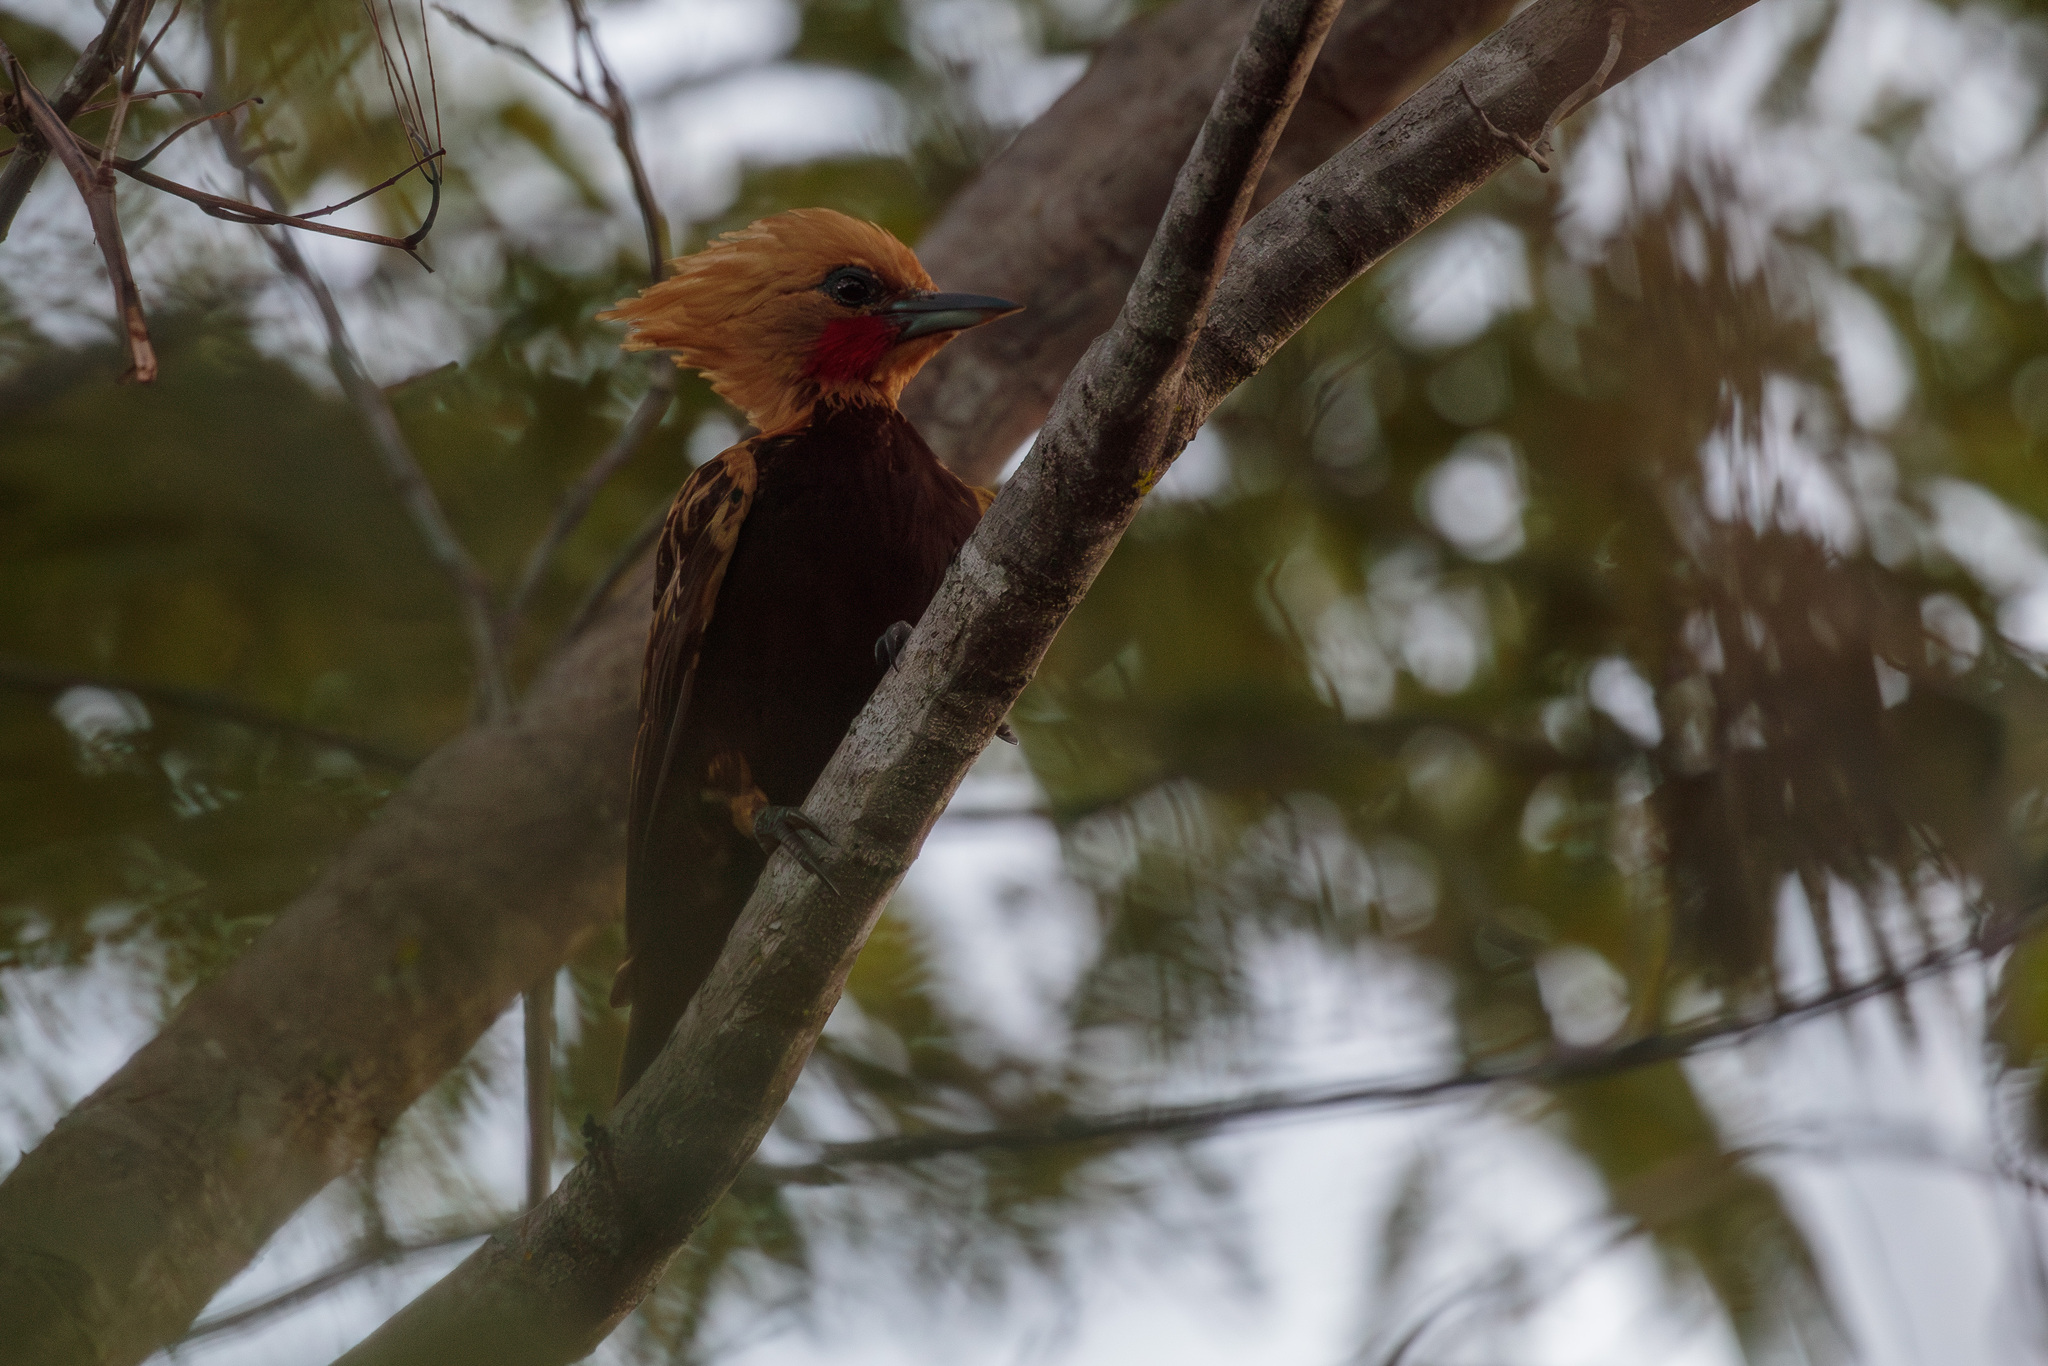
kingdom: Animalia
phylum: Chordata
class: Aves
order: Piciformes
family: Picidae
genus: Celeus
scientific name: Celeus ochraceus
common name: Ochre-backed woodpecker
